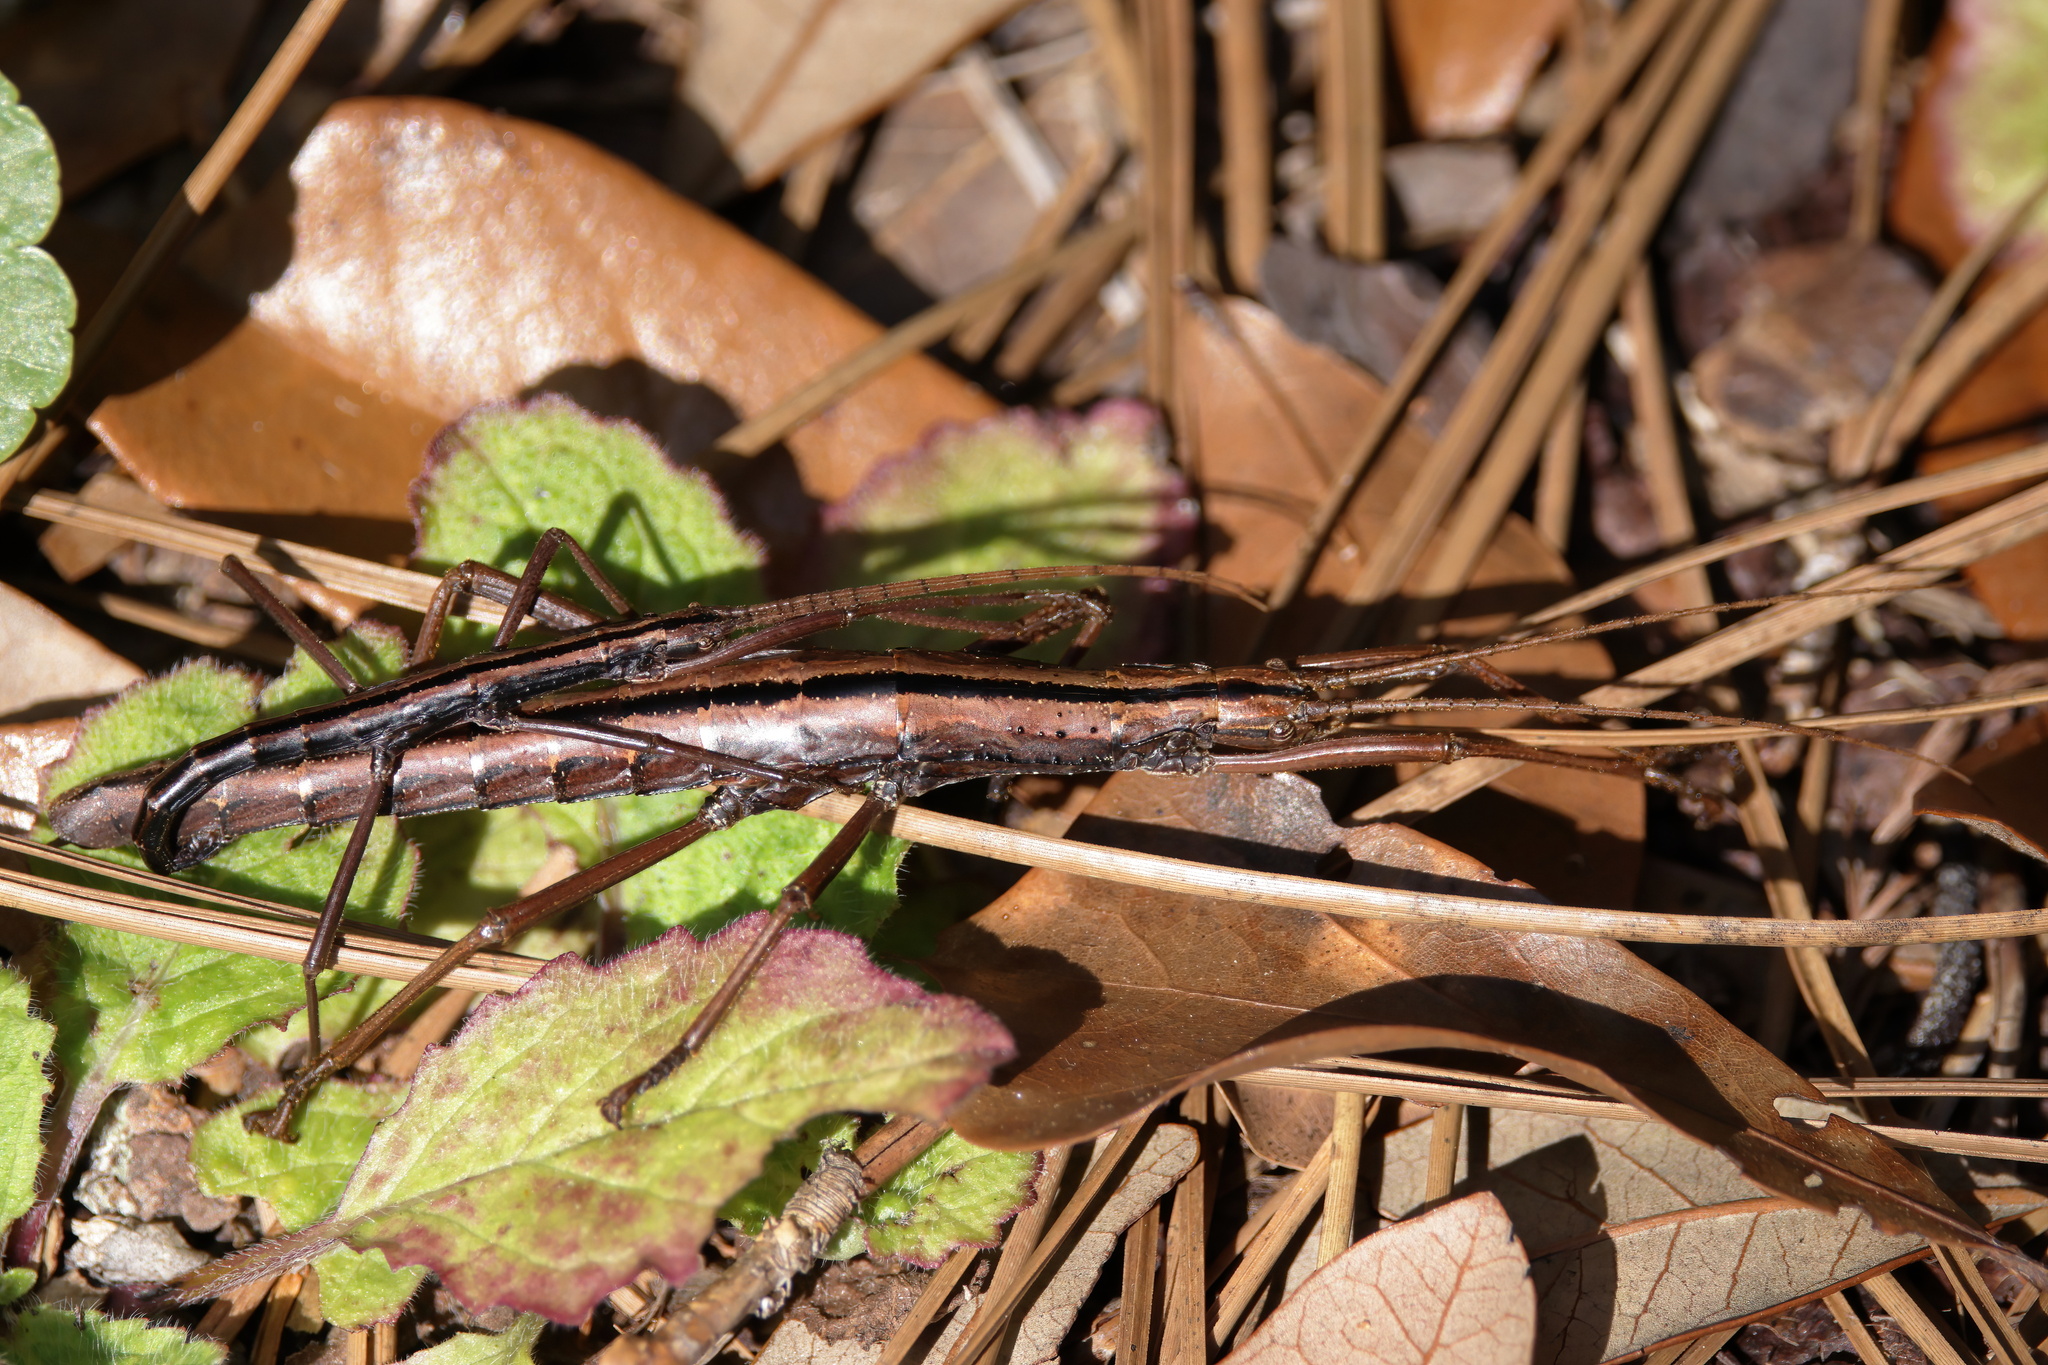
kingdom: Animalia
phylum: Arthropoda
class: Insecta
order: Phasmida
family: Pseudophasmatidae
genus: Anisomorpha
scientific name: Anisomorpha buprestoides
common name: Florida stick insect
